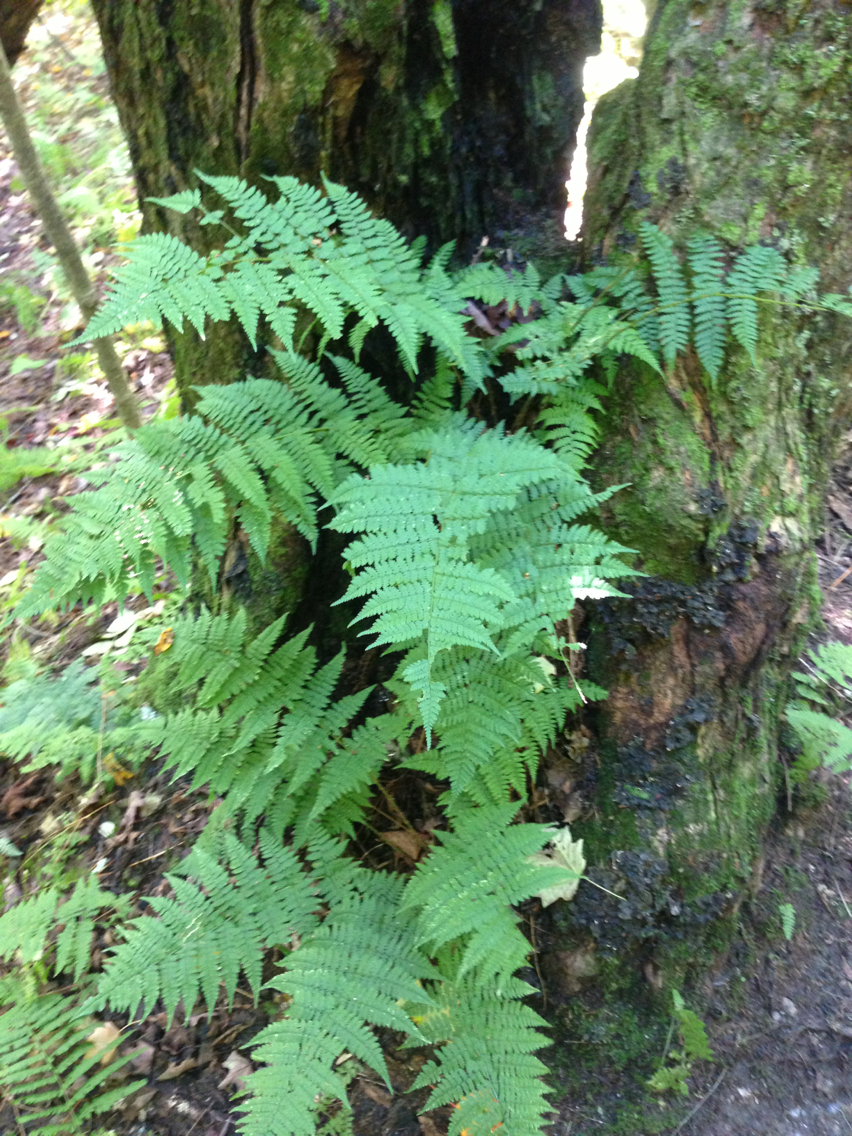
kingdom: Plantae
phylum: Tracheophyta
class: Polypodiopsida
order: Polypodiales
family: Dryopteridaceae
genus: Dryopteris
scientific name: Dryopteris intermedia
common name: Evergreen wood fern
